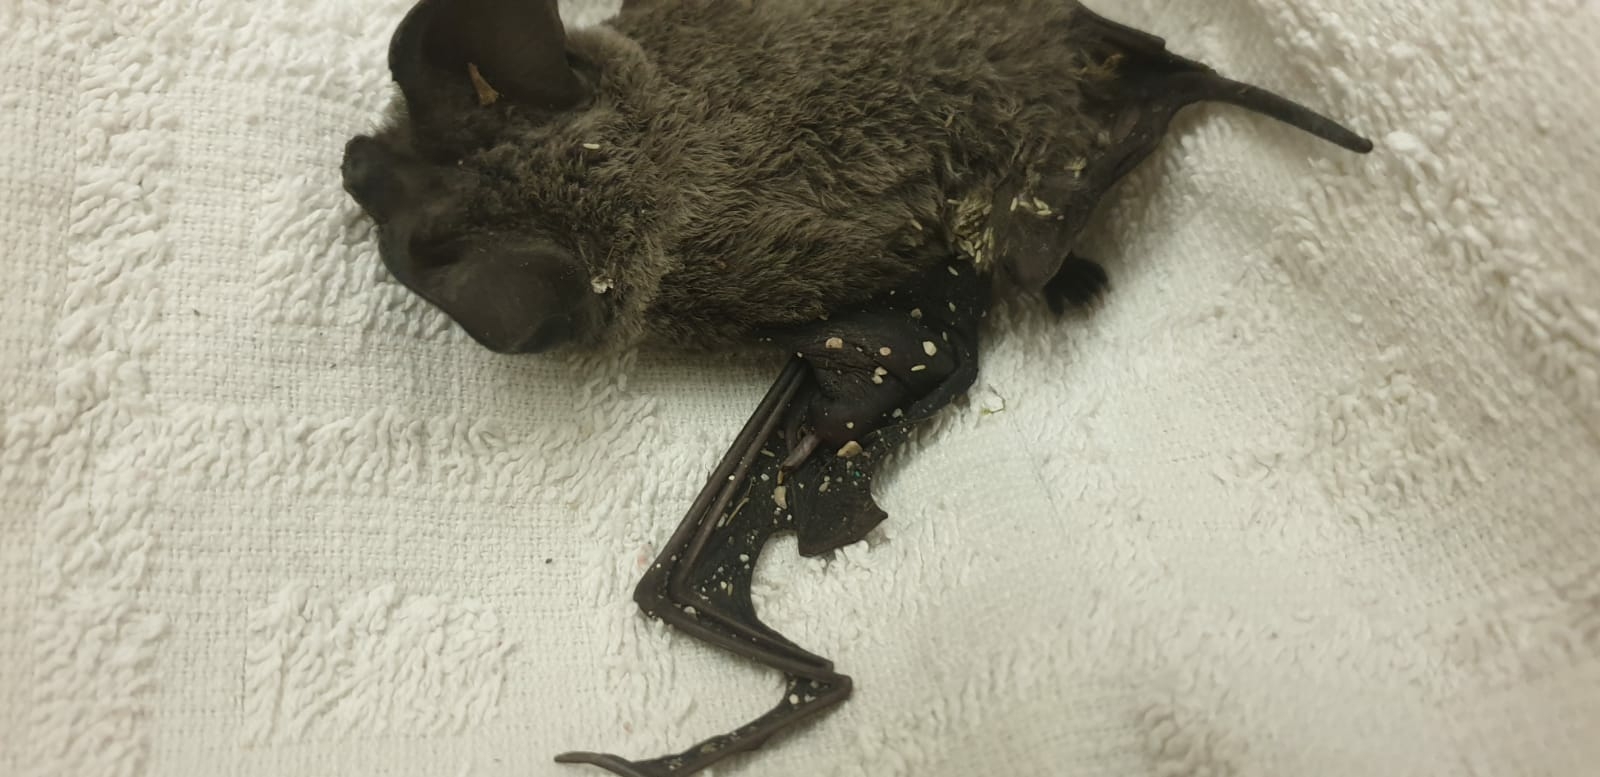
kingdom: Animalia
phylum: Chordata
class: Mammalia
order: Chiroptera
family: Molossidae
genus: Tadarida
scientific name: Tadarida teniotis
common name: European free-tailed bat
